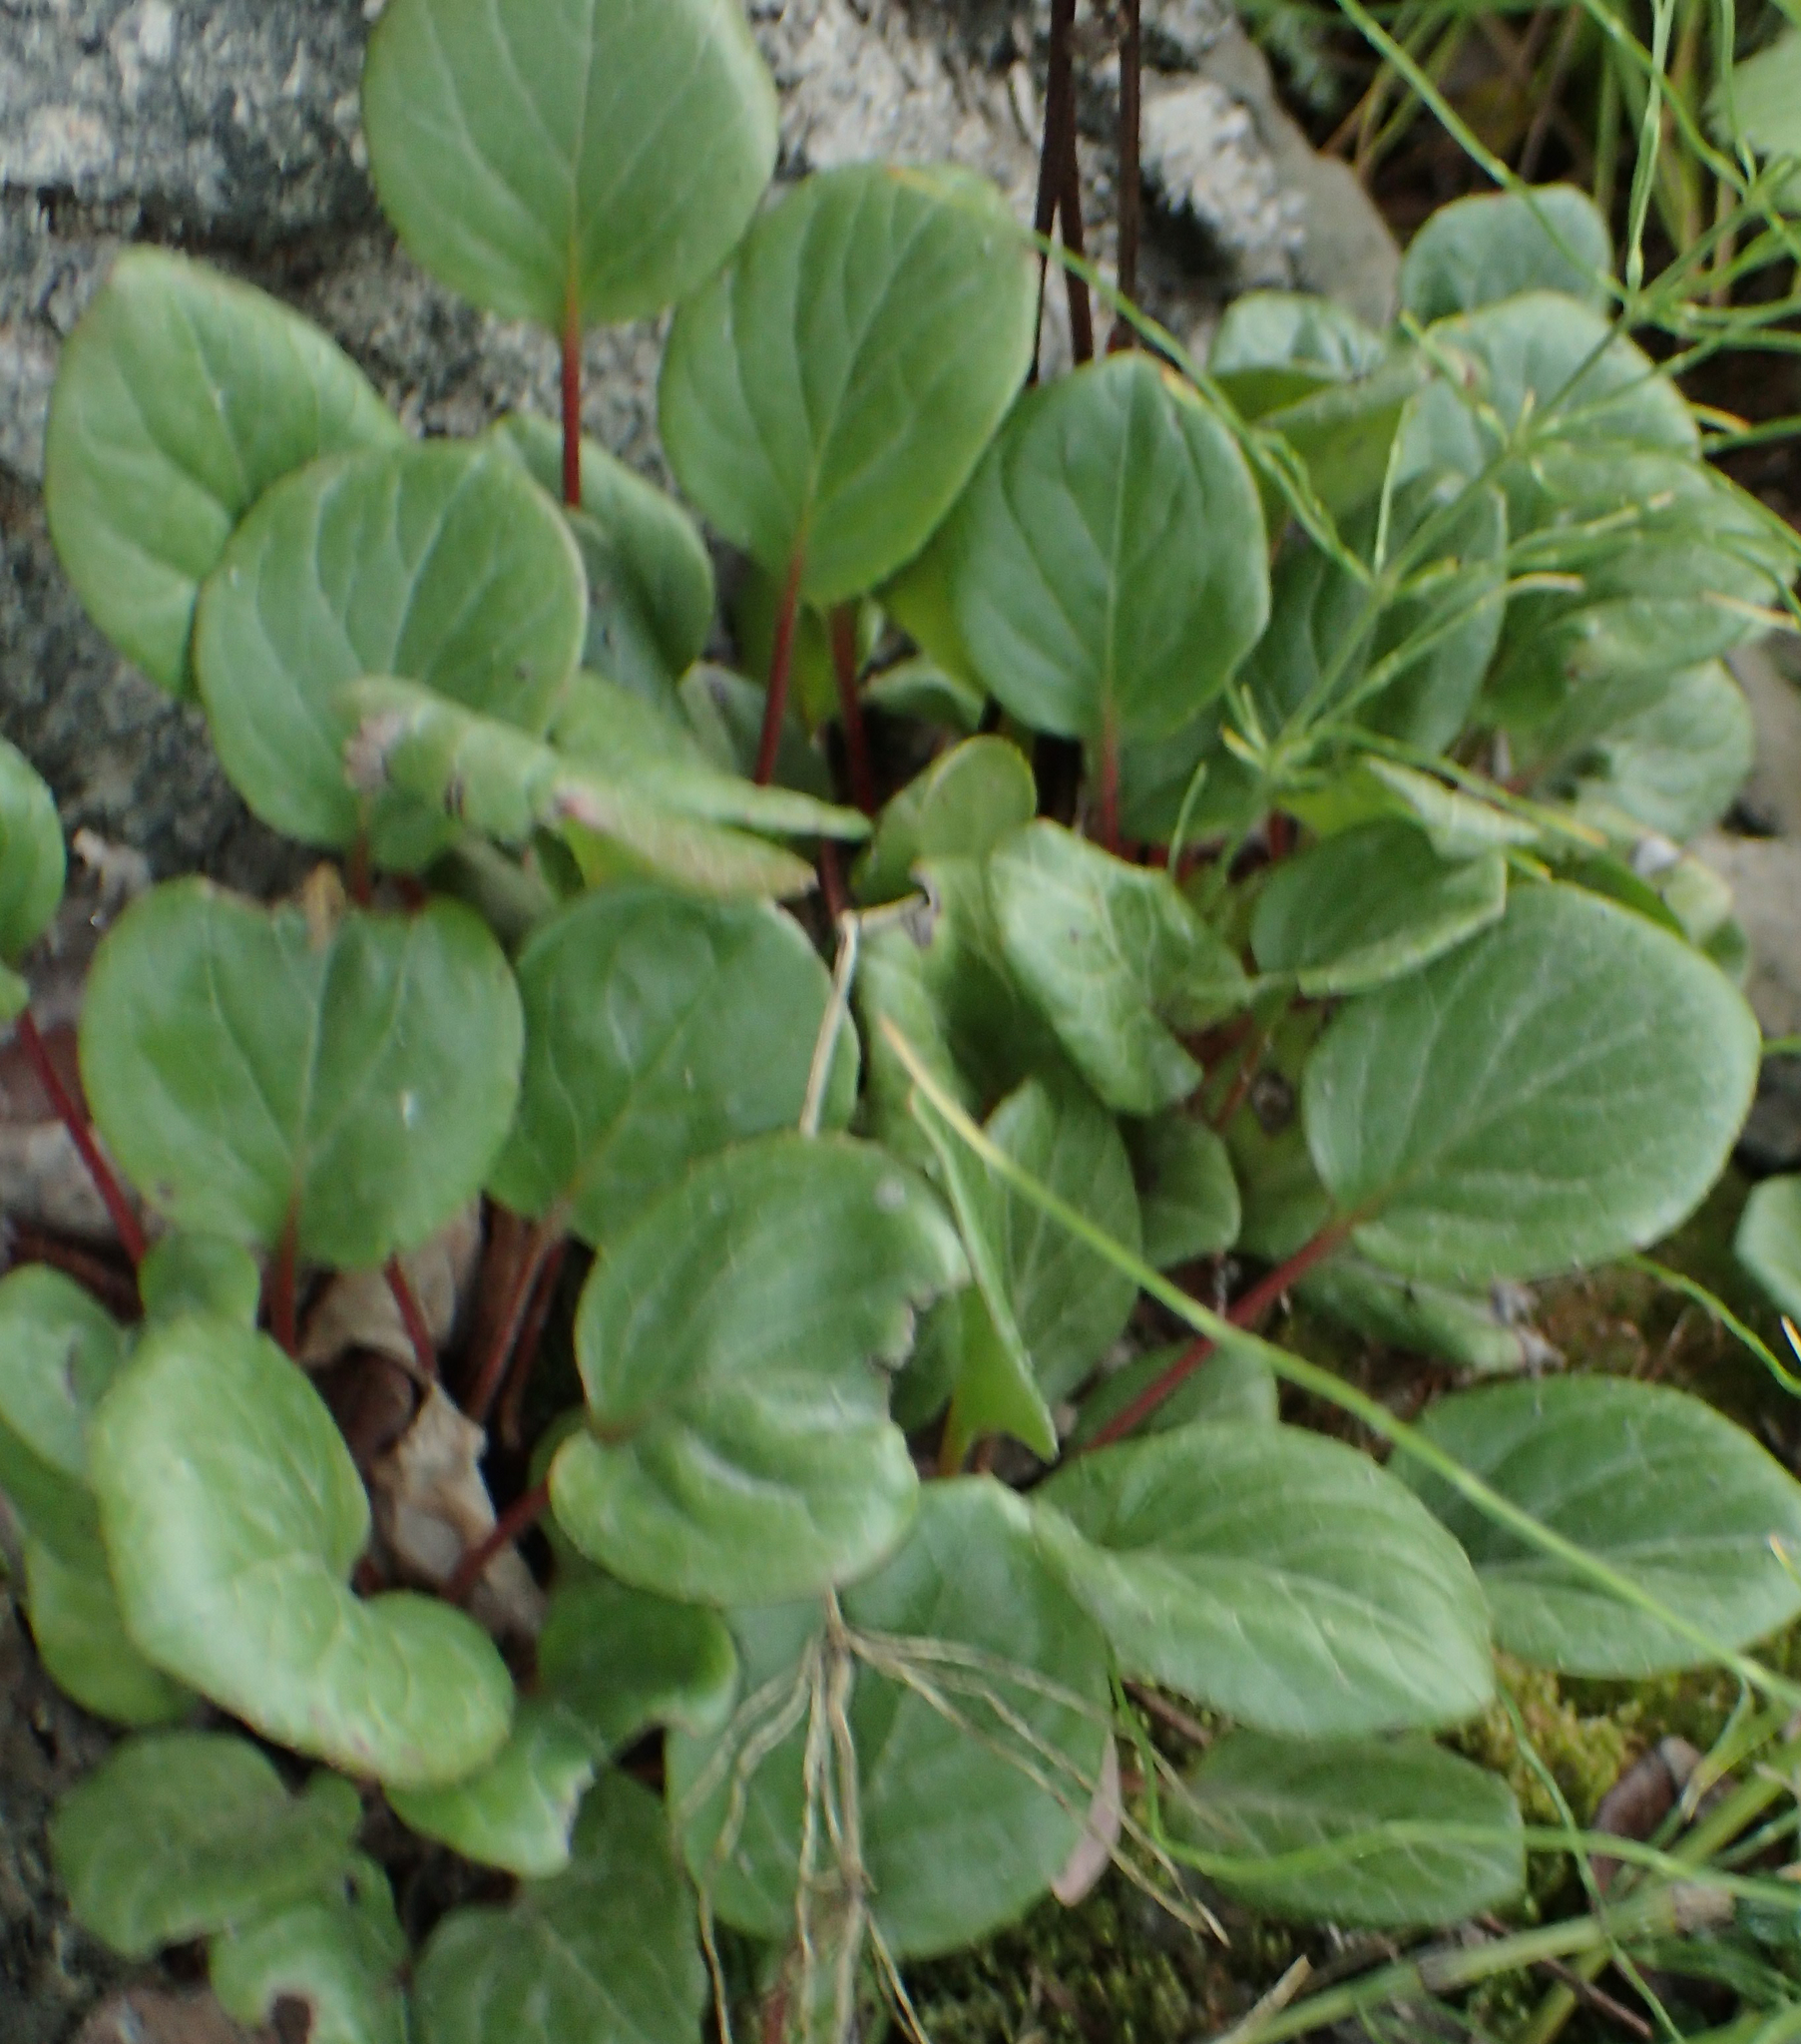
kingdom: Plantae
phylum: Tracheophyta
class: Magnoliopsida
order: Ericales
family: Ericaceae
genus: Pyrola
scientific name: Pyrola asarifolia
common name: Bog wintergreen
